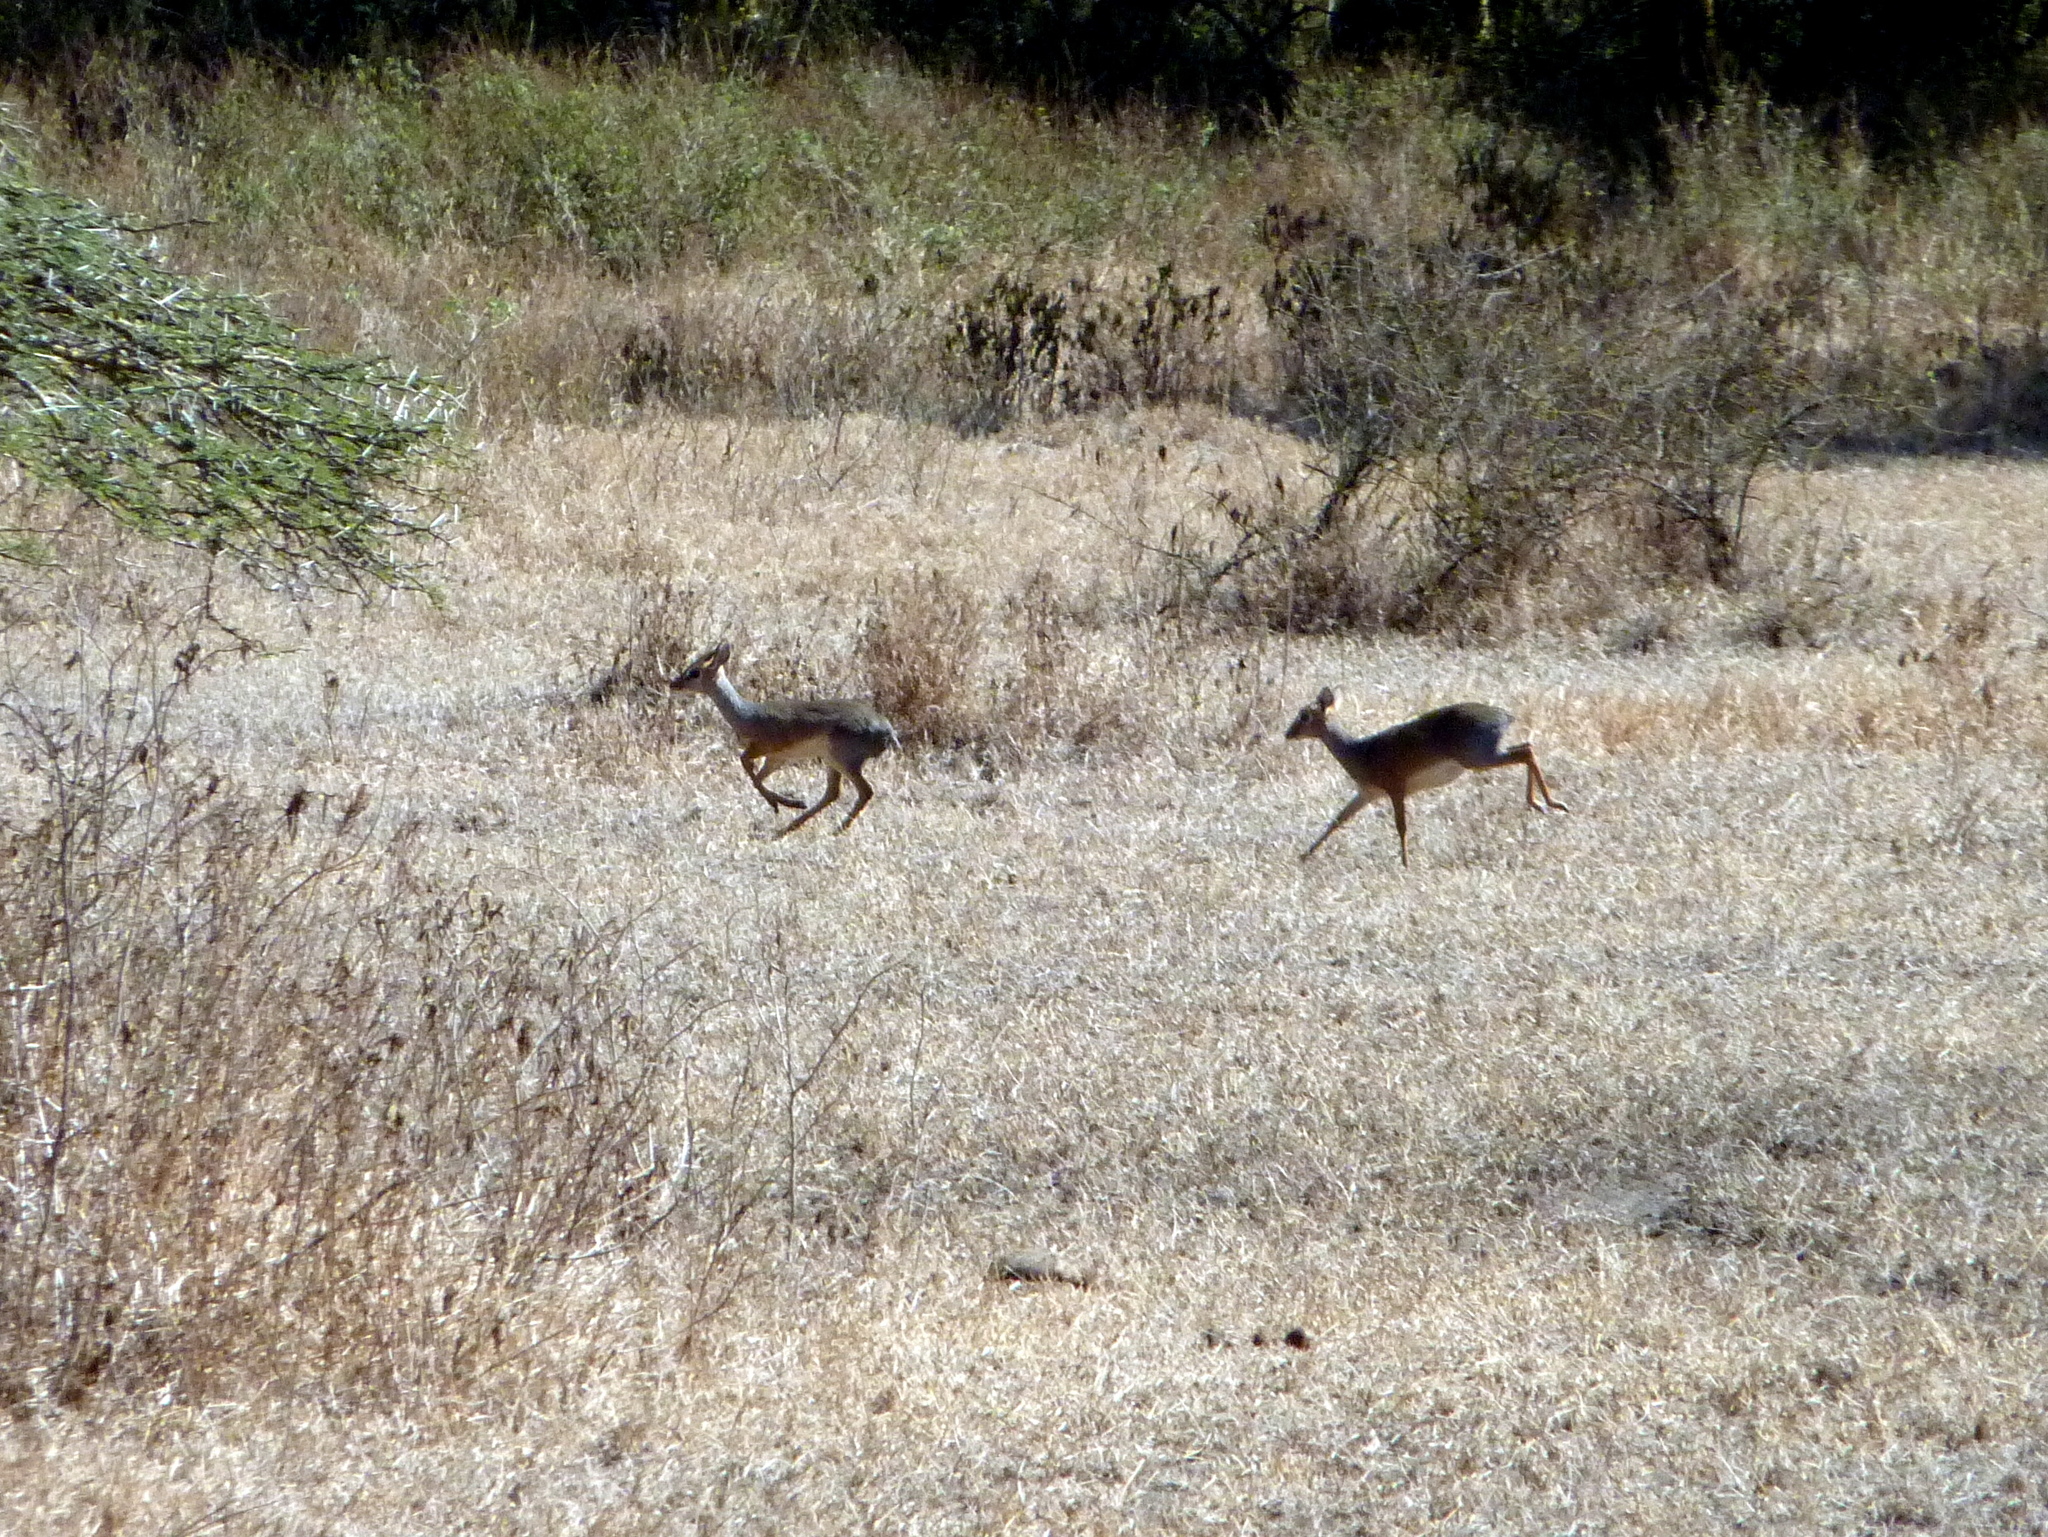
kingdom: Animalia
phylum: Chordata
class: Mammalia
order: Artiodactyla
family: Bovidae
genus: Madoqua
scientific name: Madoqua
